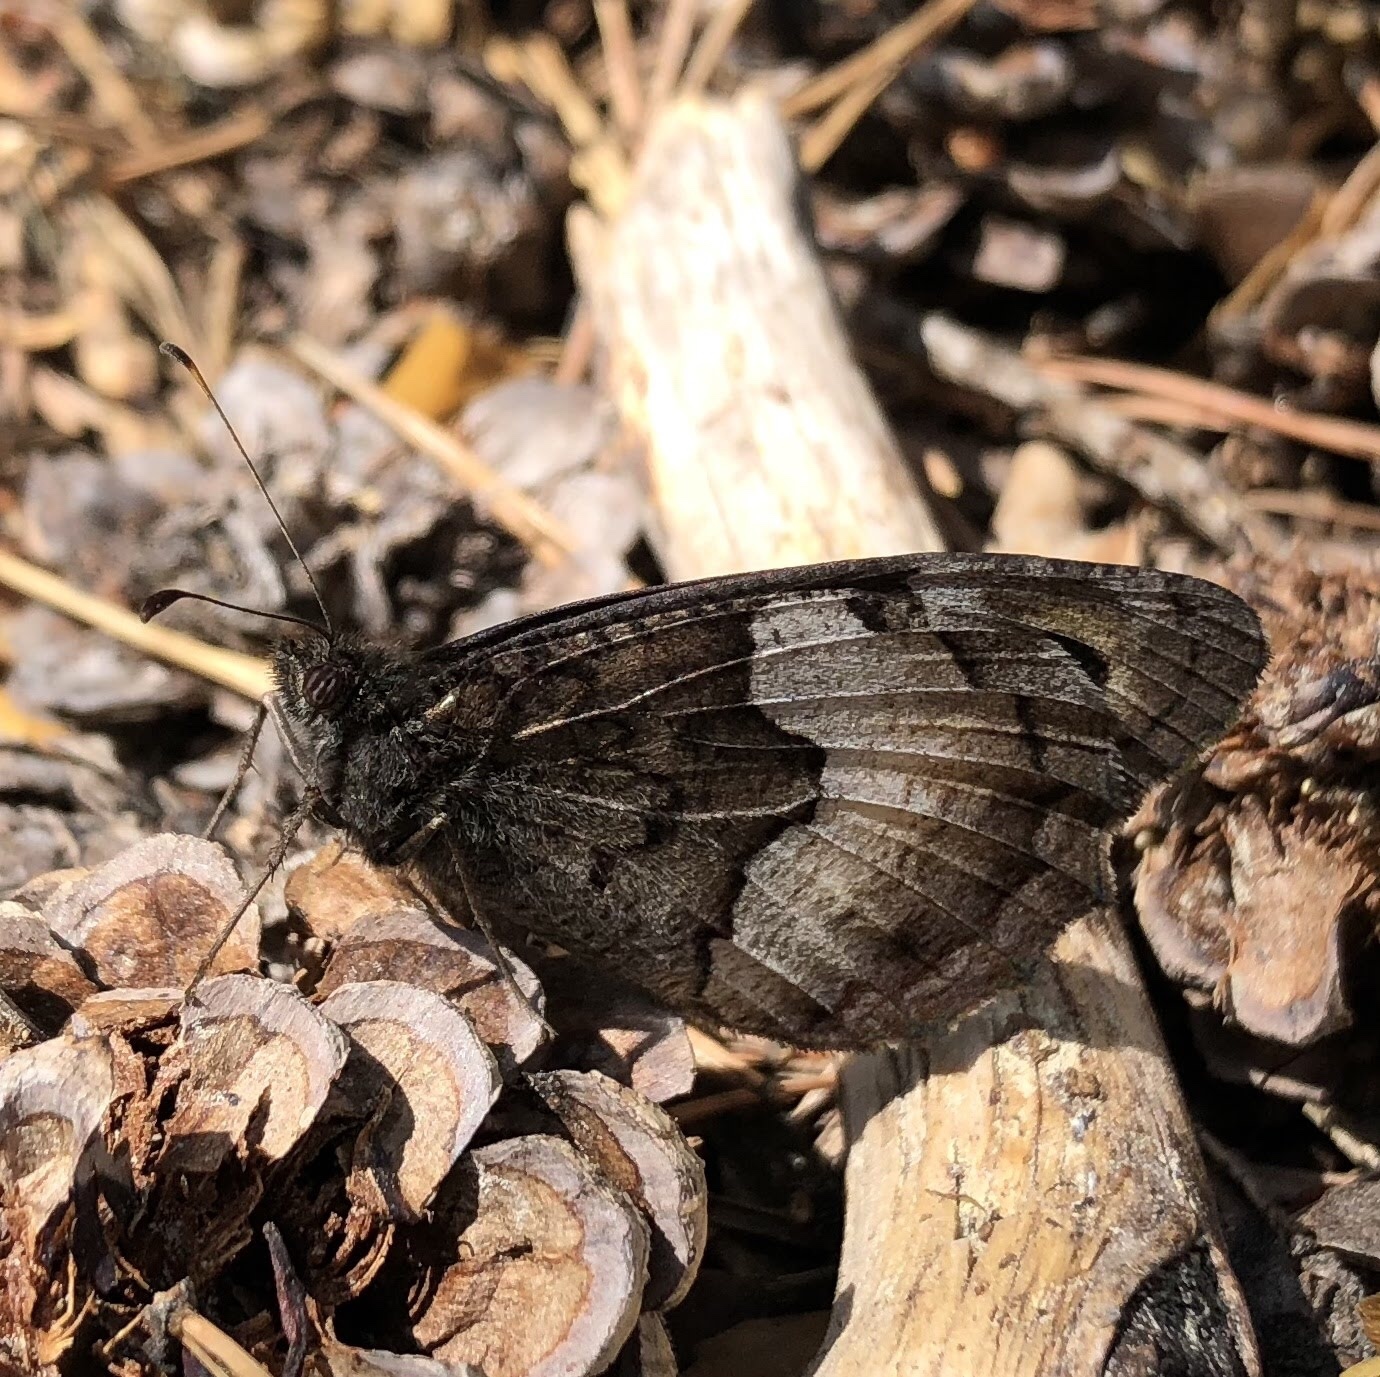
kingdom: Animalia
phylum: Arthropoda
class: Insecta
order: Lepidoptera
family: Nymphalidae
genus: Hipparchia
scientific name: Hipparchia hermione
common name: Rock grayling
